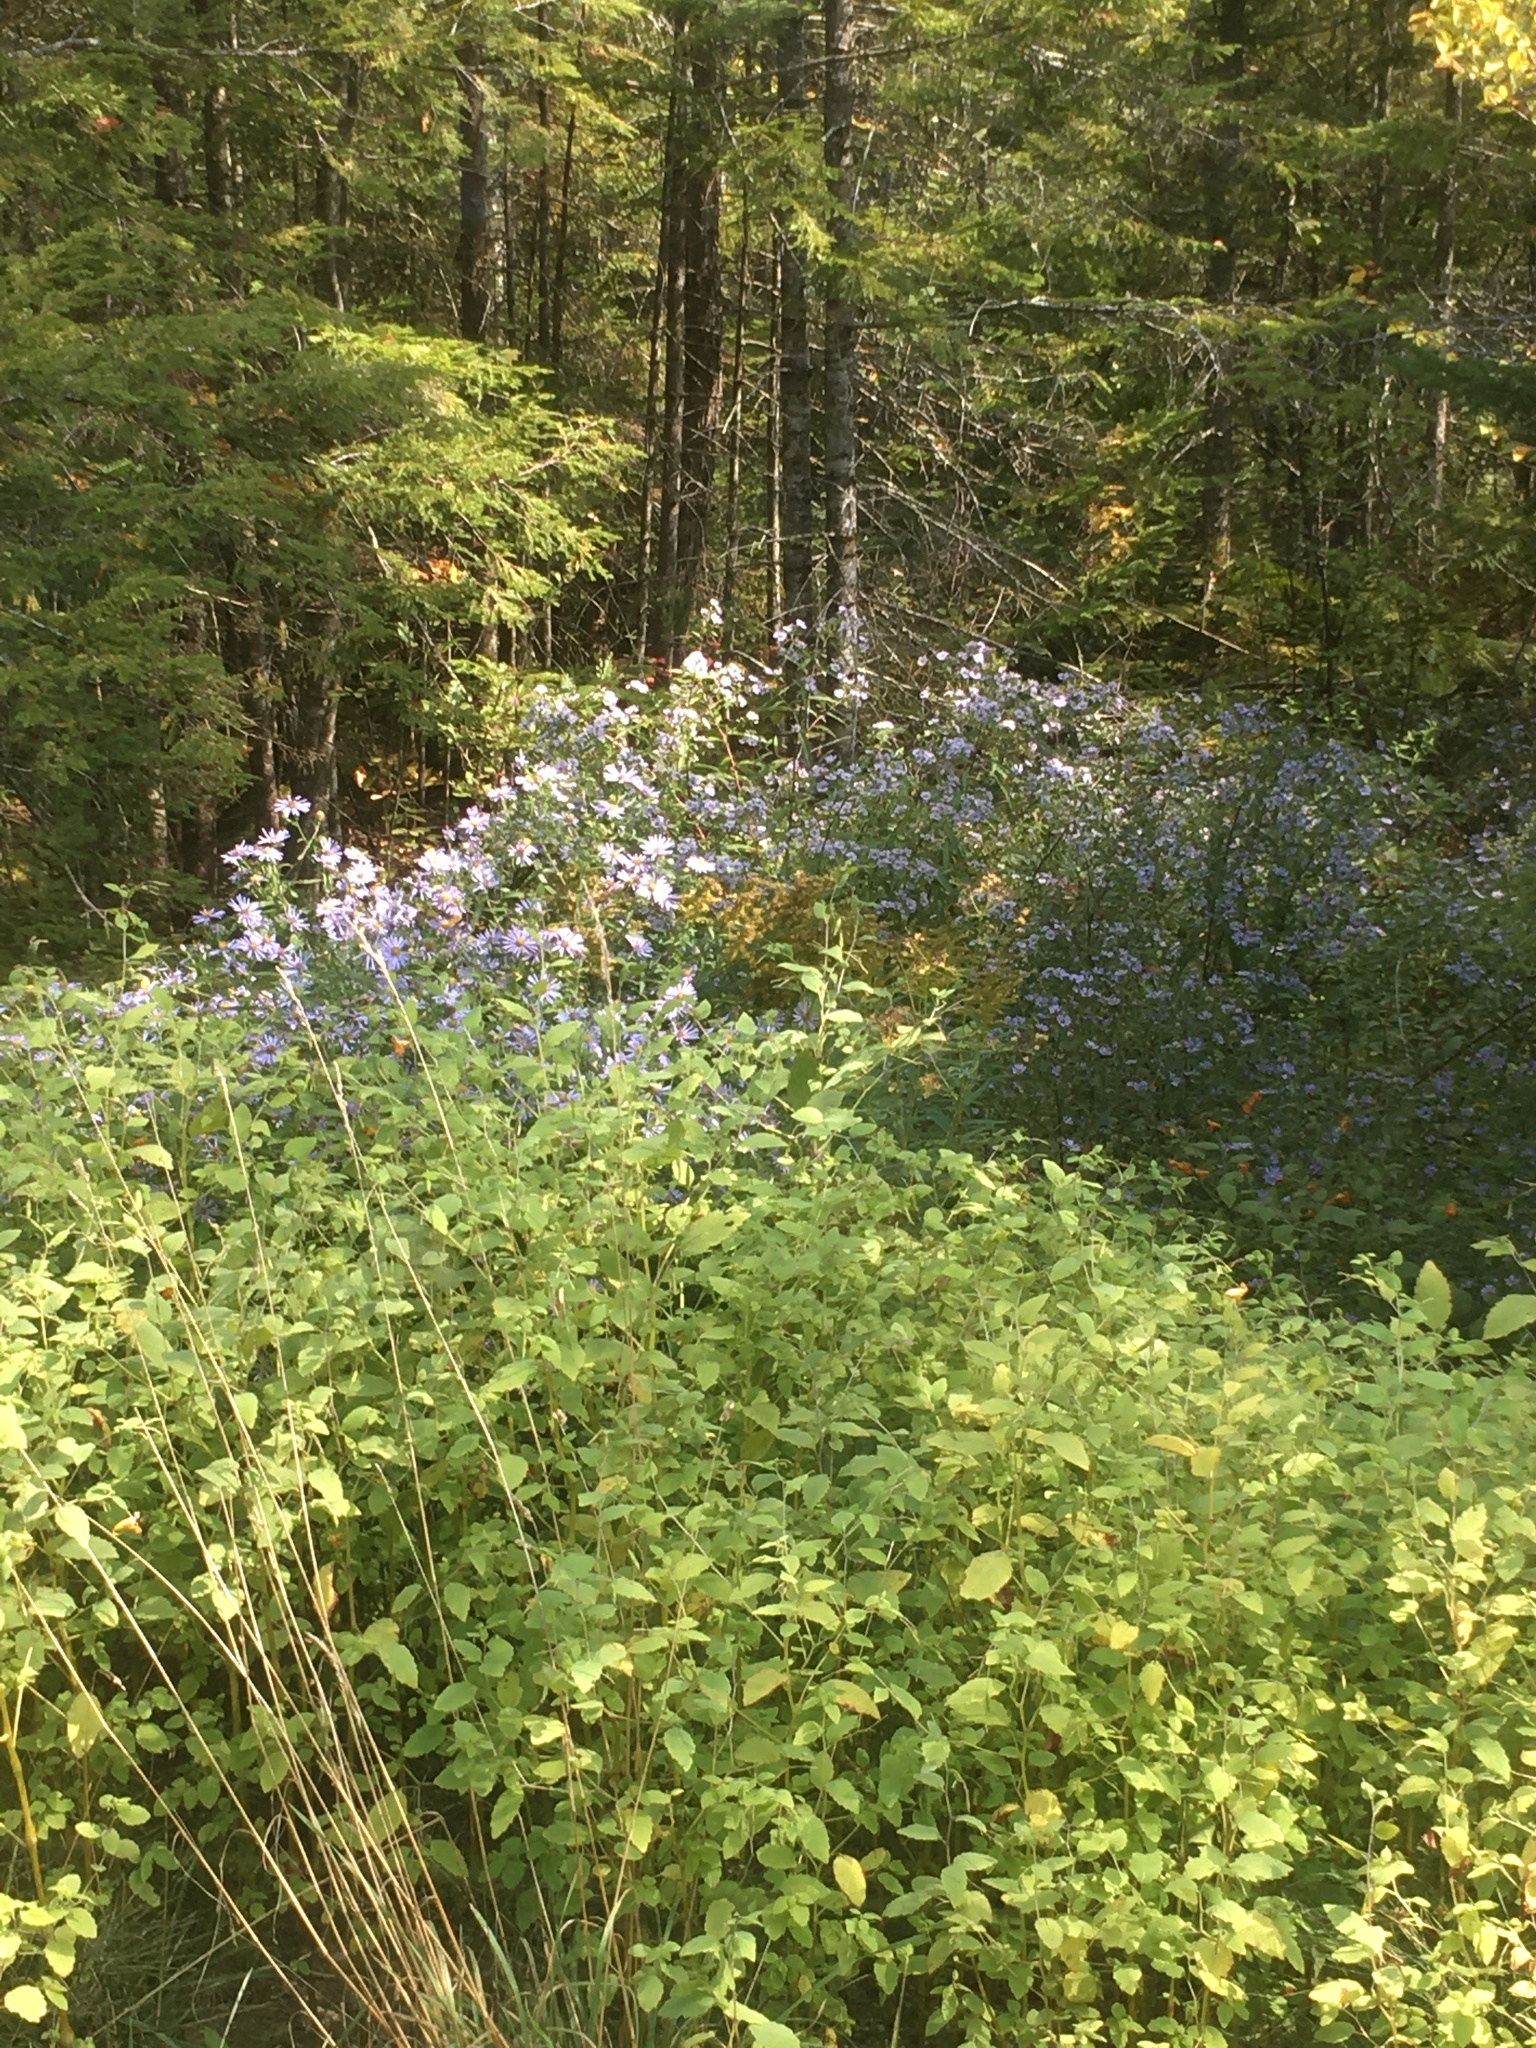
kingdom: Plantae
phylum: Tracheophyta
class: Magnoliopsida
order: Asterales
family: Asteraceae
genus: Symphyotrichum
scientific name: Symphyotrichum puniceum
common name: Bog aster
